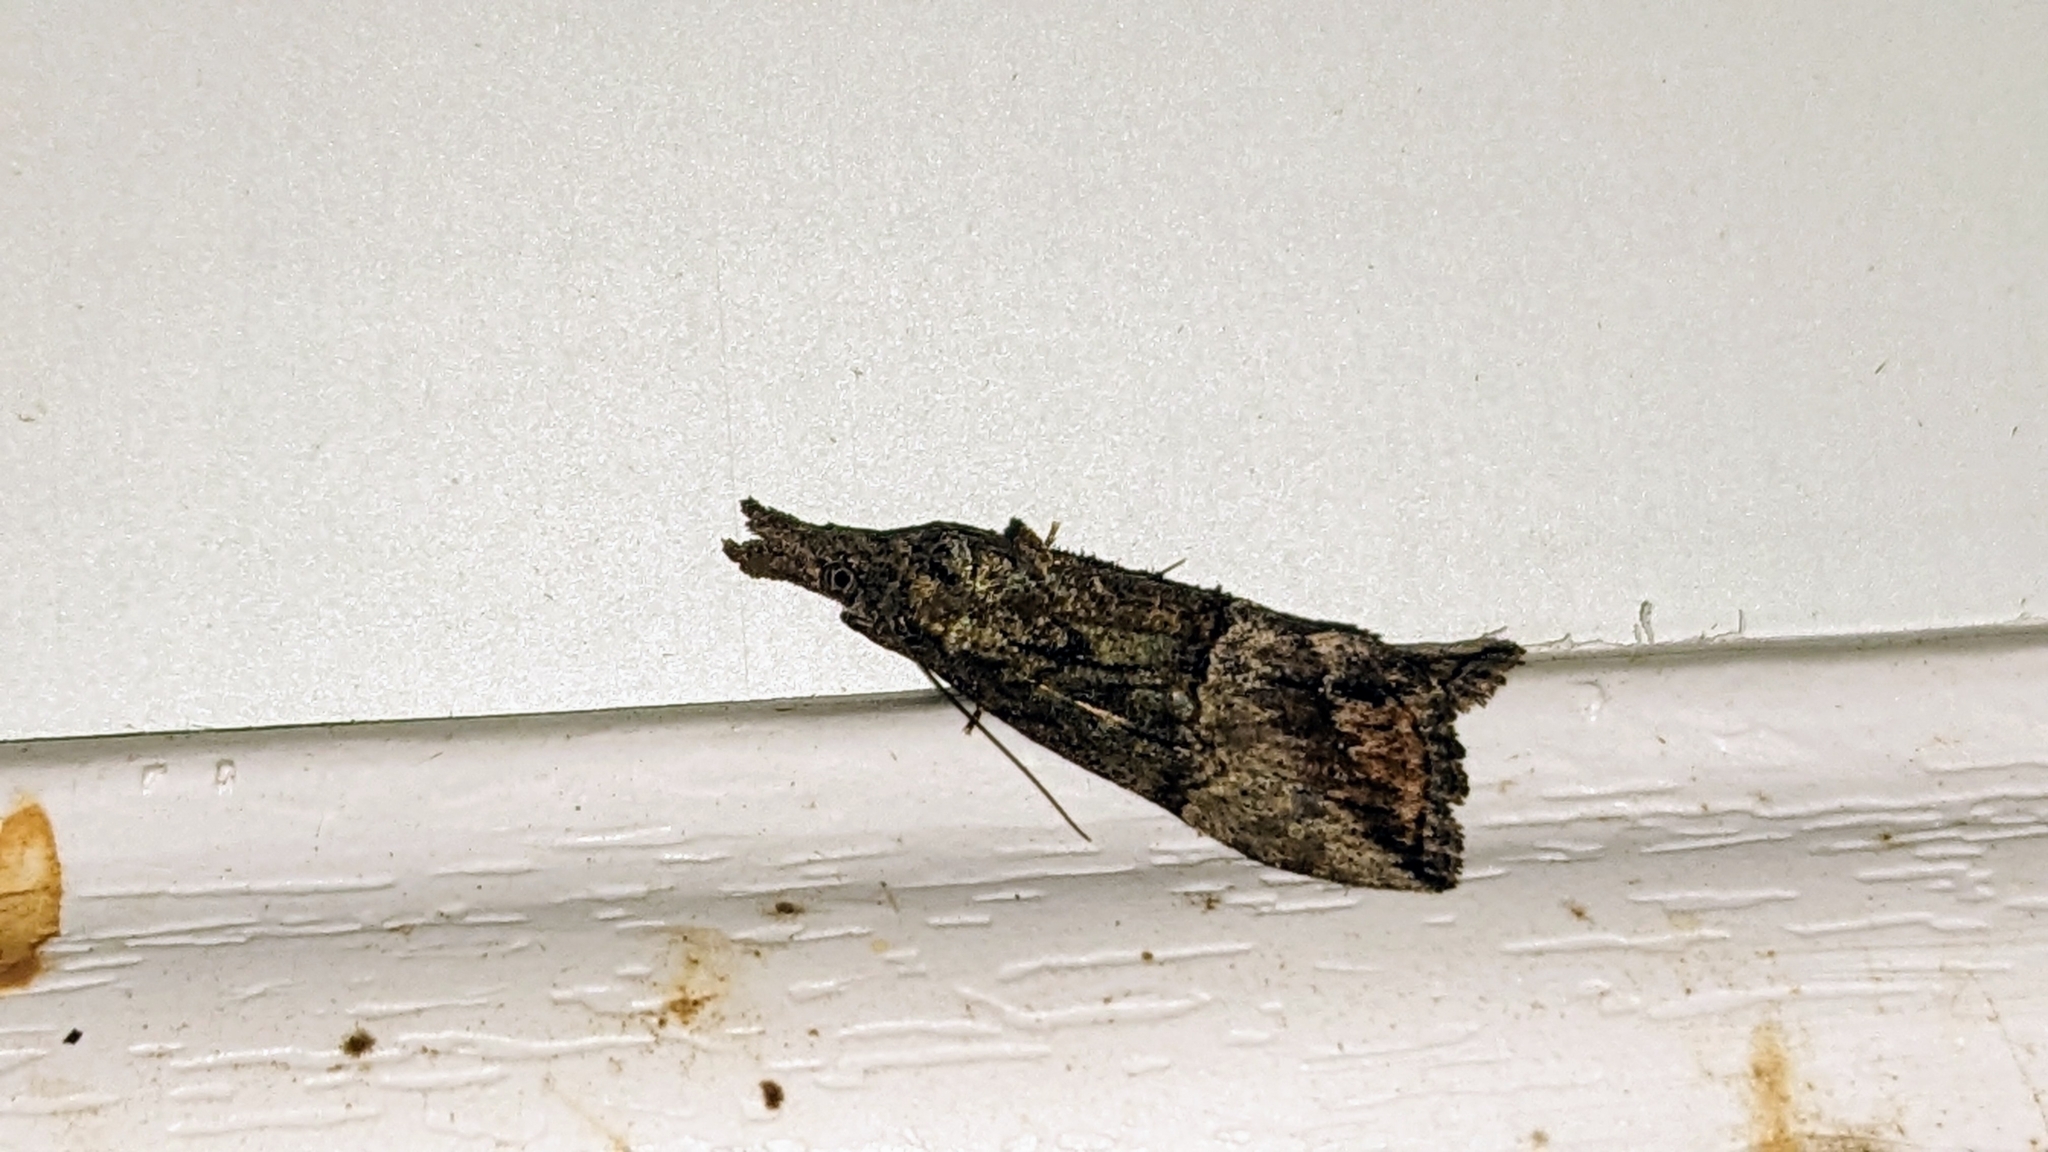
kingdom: Animalia
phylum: Arthropoda
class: Insecta
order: Lepidoptera
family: Erebidae
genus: Hypena
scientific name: Hypena scabra
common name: Green cloverworm
